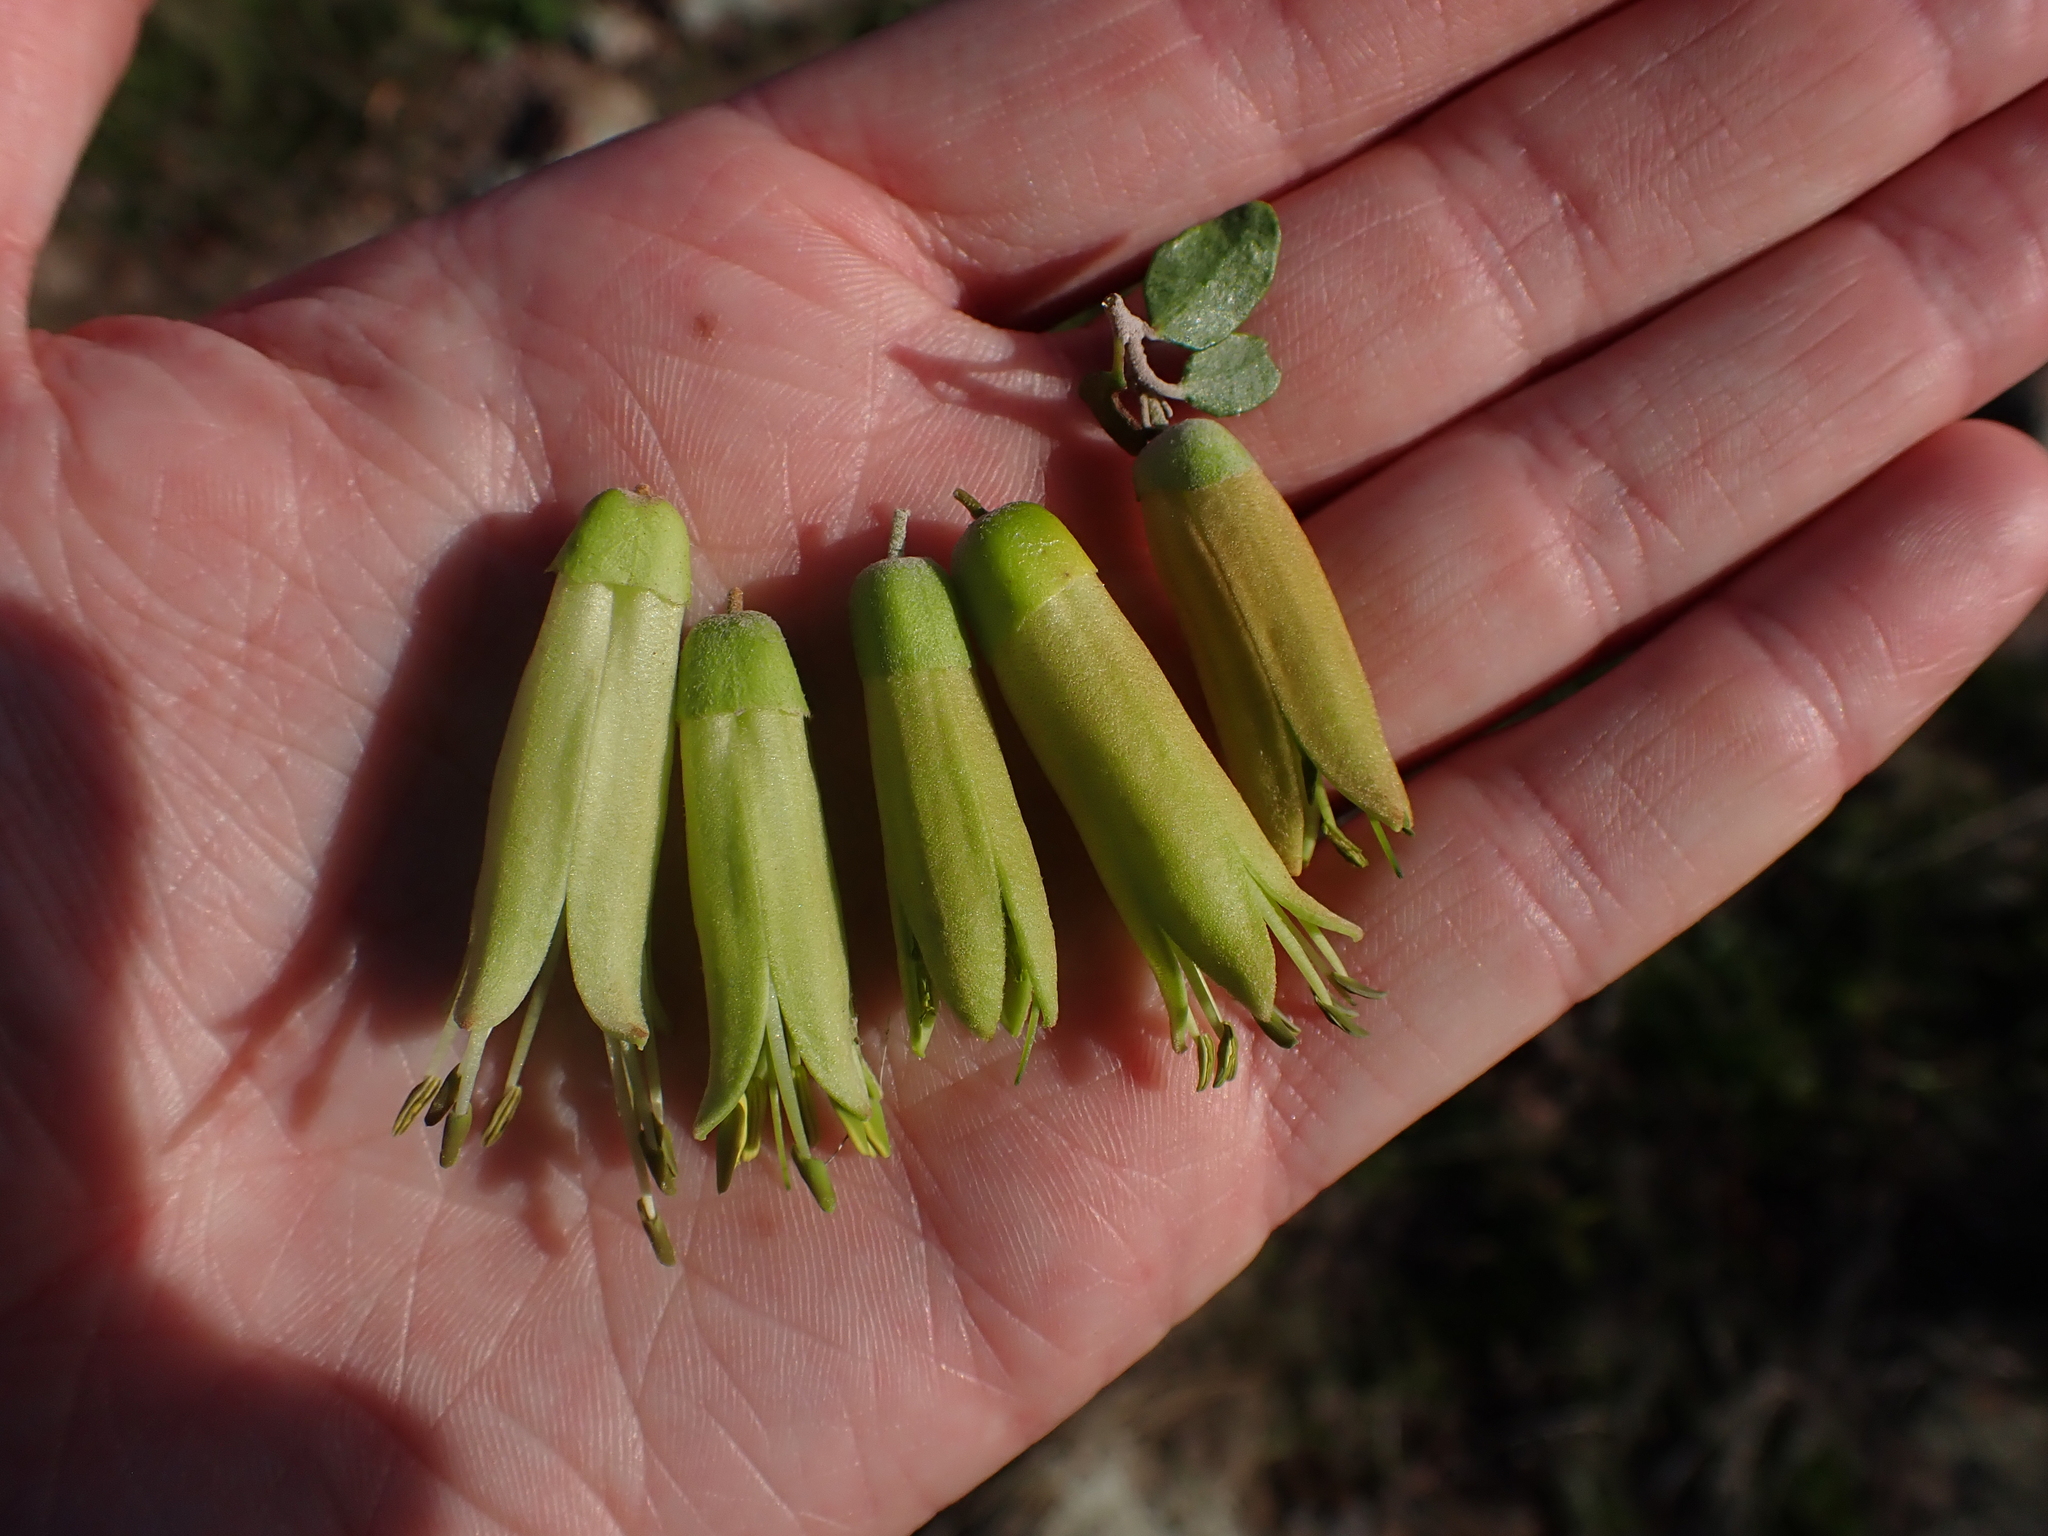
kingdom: Plantae
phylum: Tracheophyta
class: Magnoliopsida
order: Sapindales
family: Rutaceae
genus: Correa
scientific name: Correa glabra
